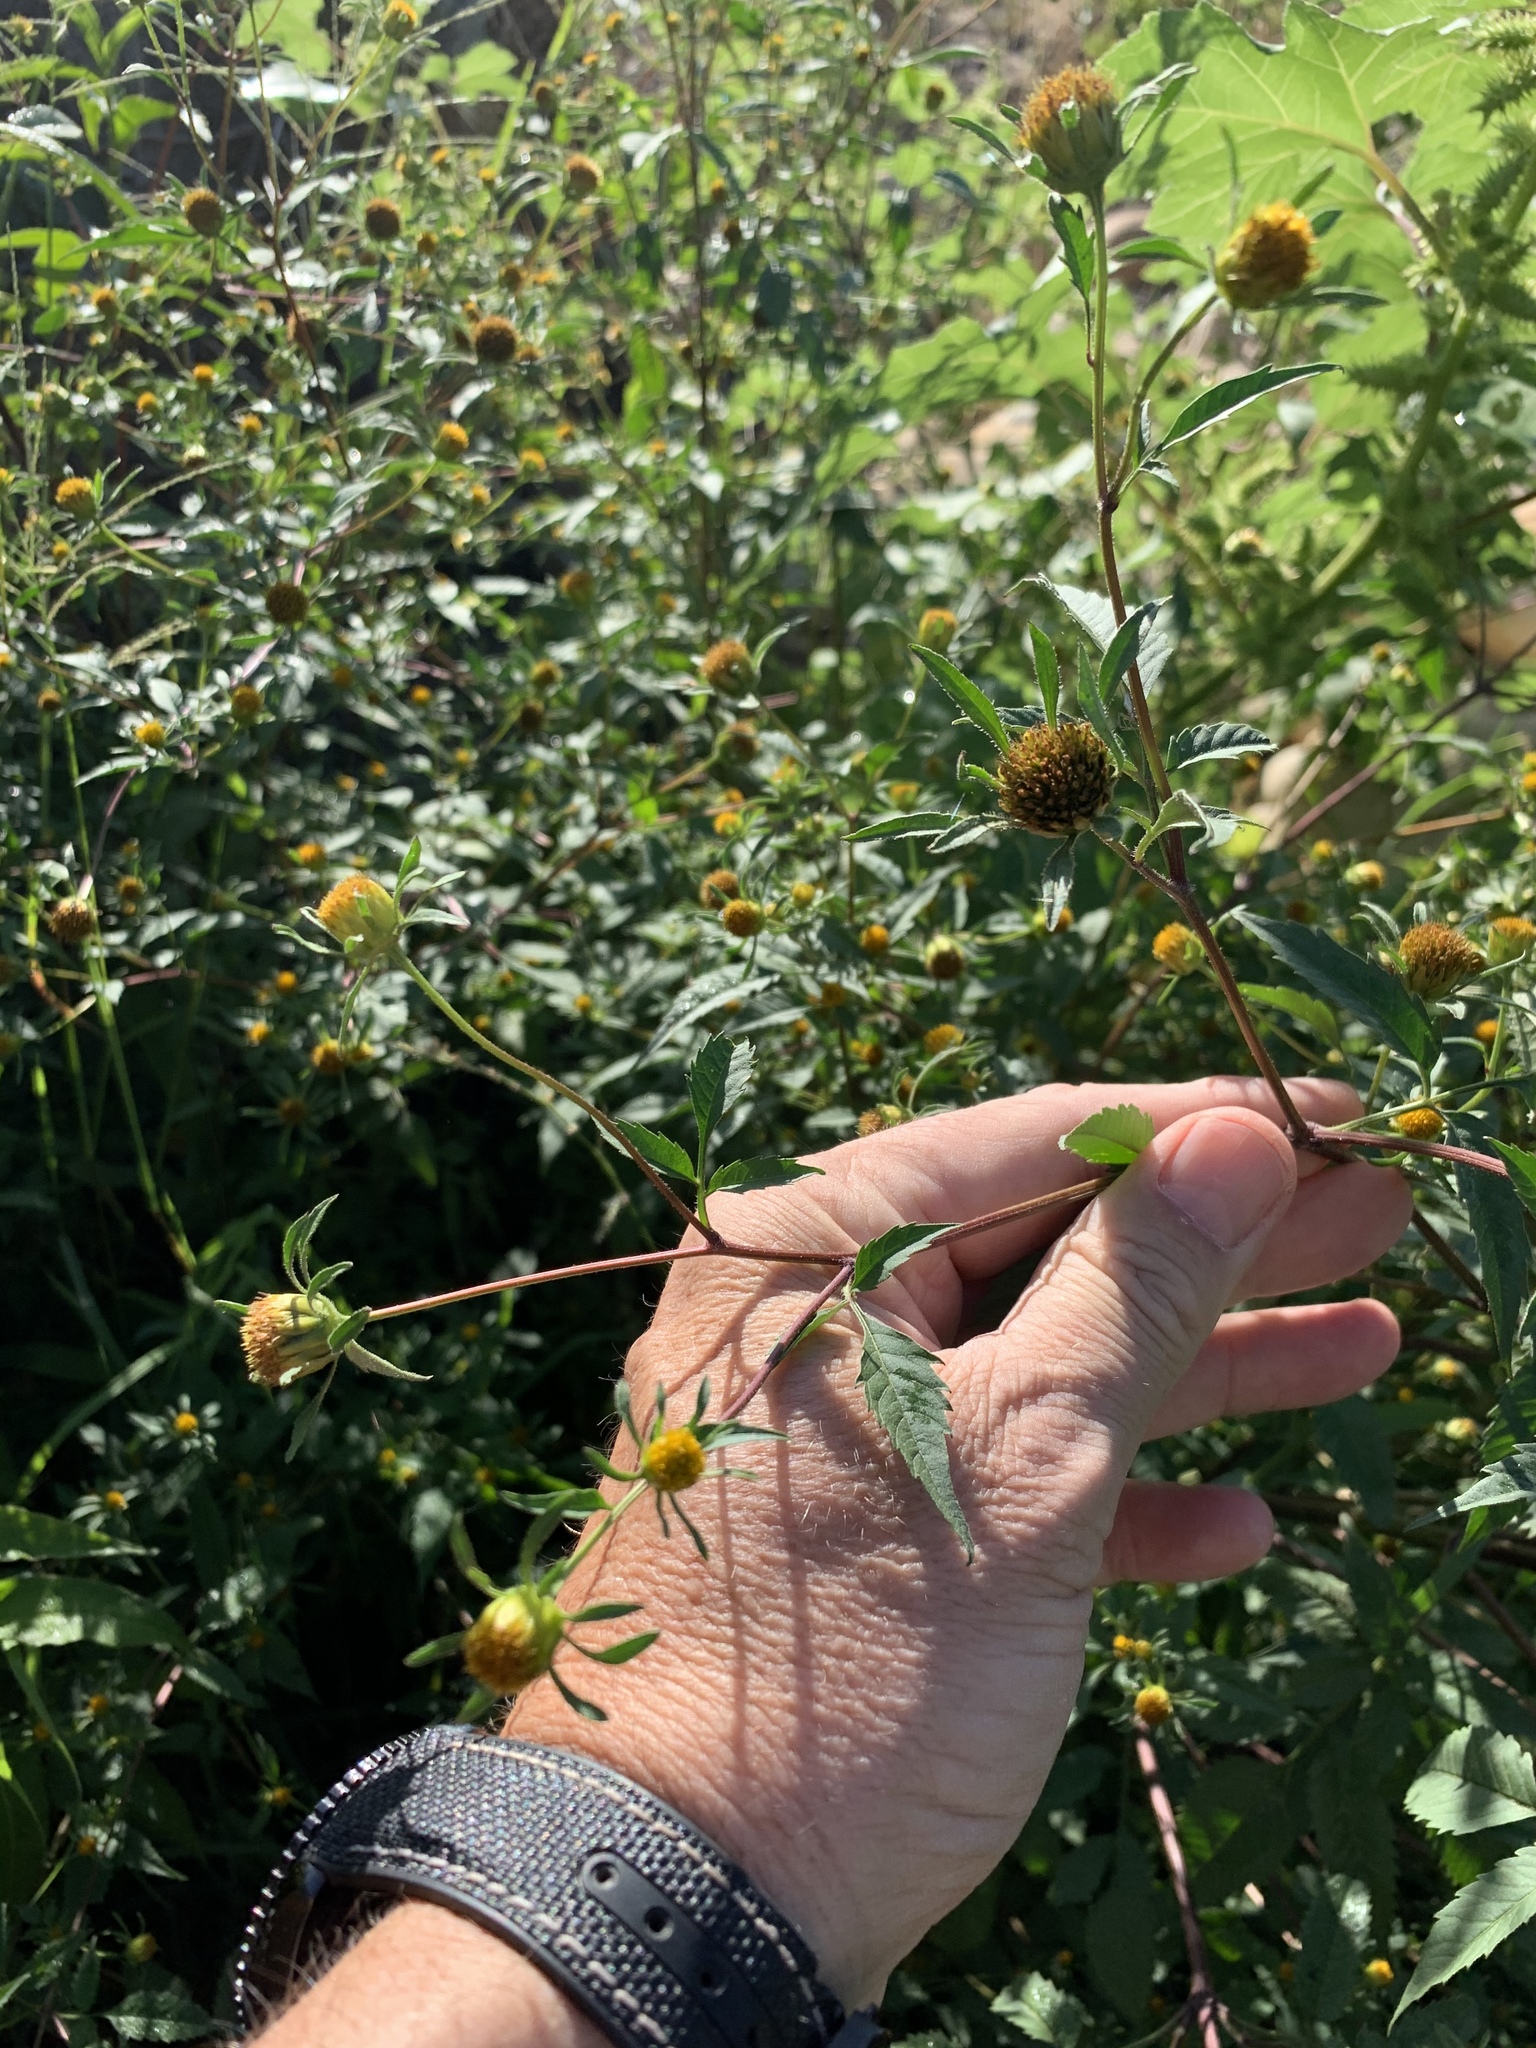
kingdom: Plantae
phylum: Tracheophyta
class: Magnoliopsida
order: Asterales
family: Asteraceae
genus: Bidens
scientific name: Bidens pilosa
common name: Black-jack
